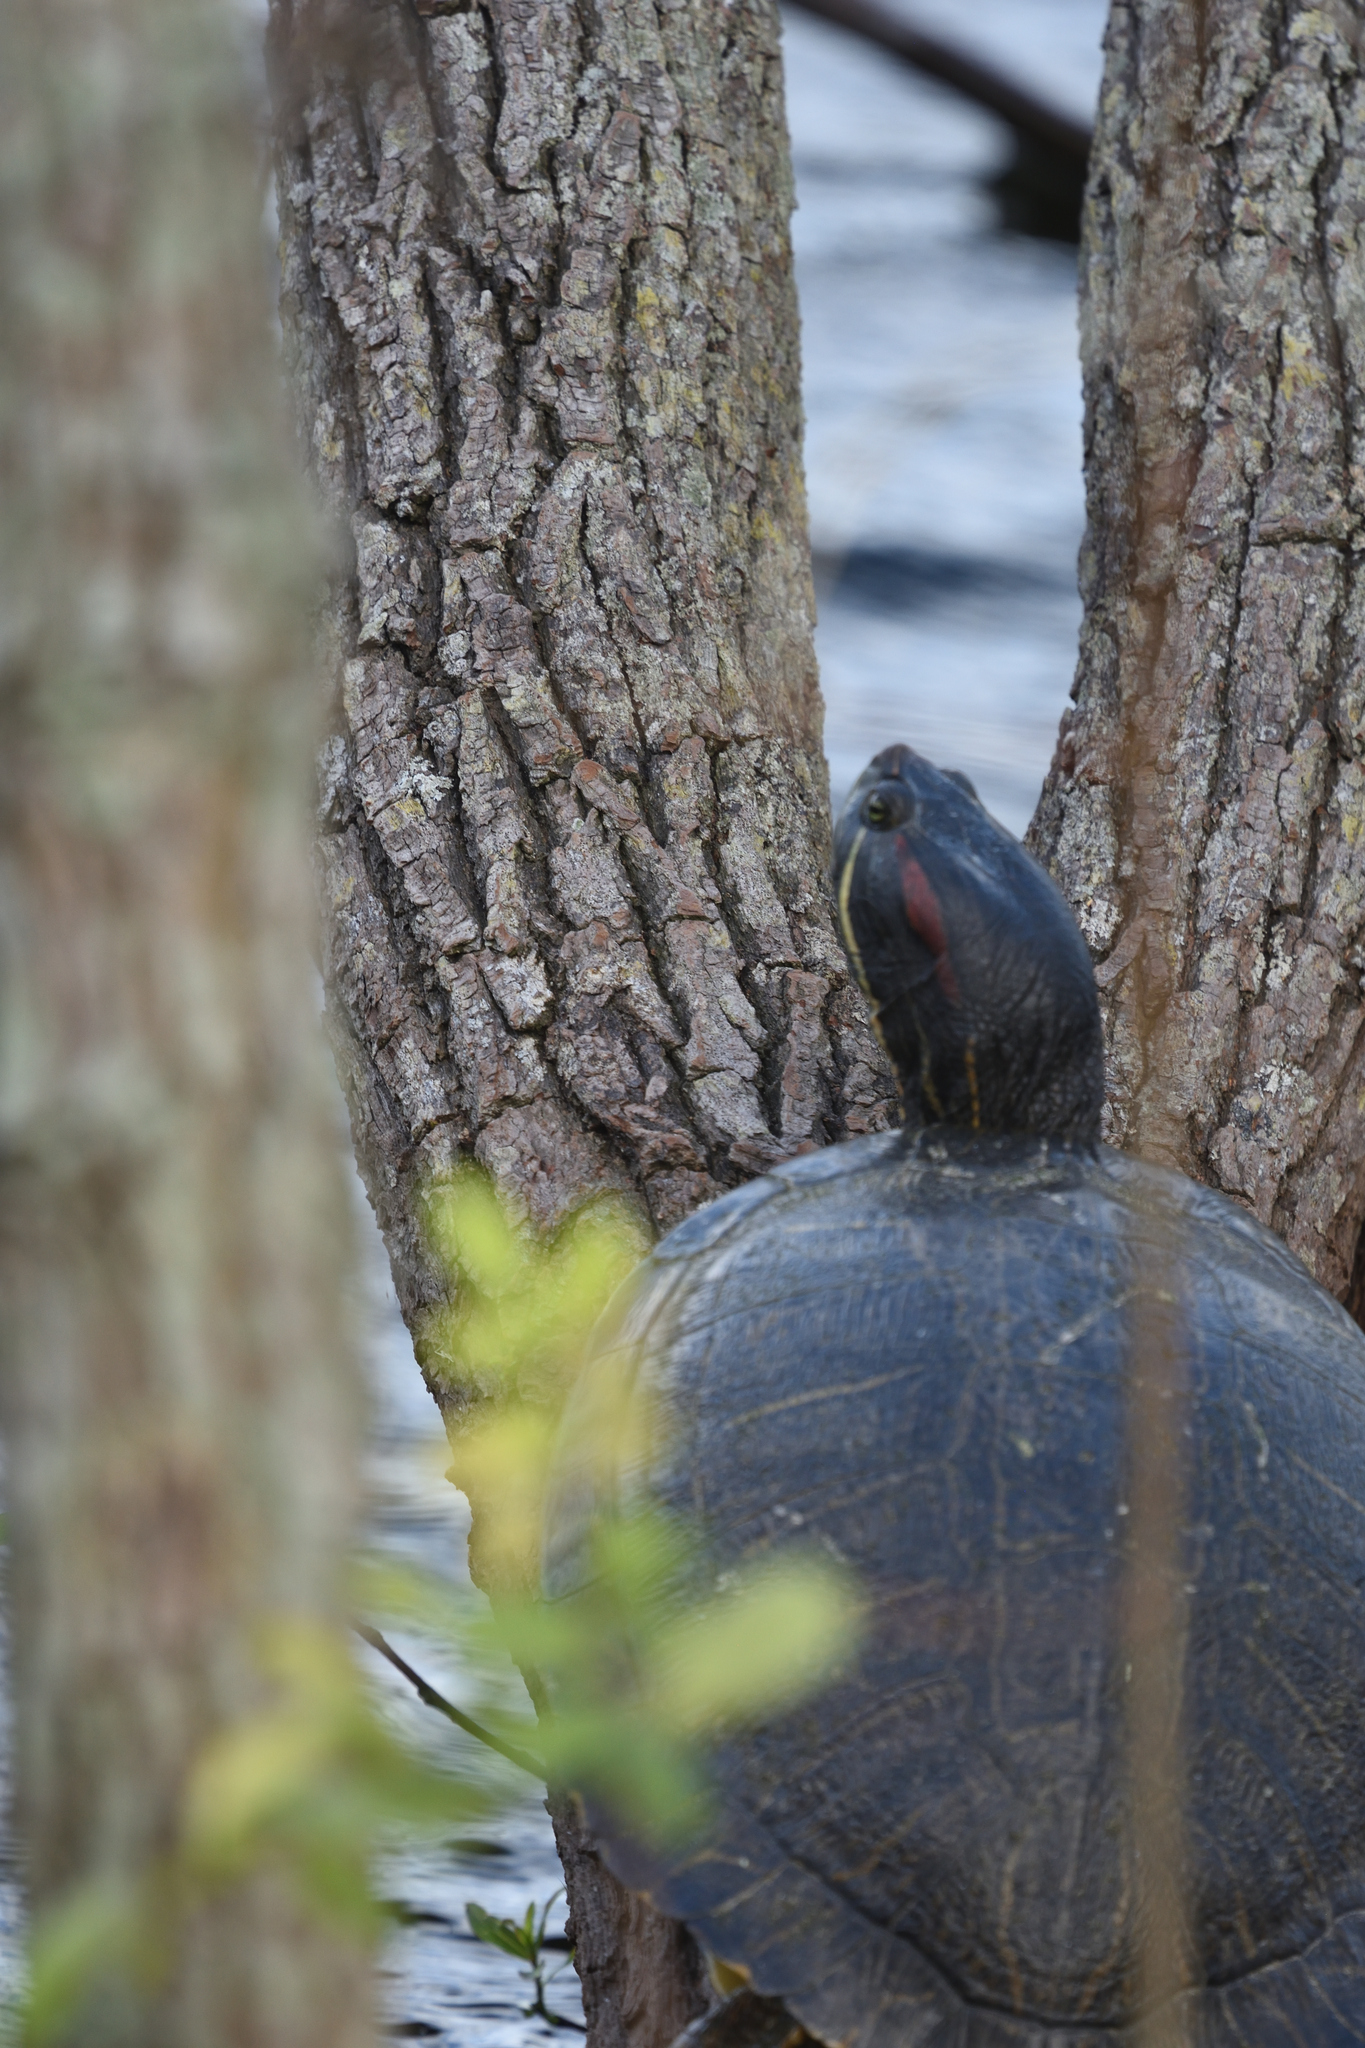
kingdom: Animalia
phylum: Chordata
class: Testudines
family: Emydidae
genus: Trachemys
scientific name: Trachemys scripta
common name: Slider
